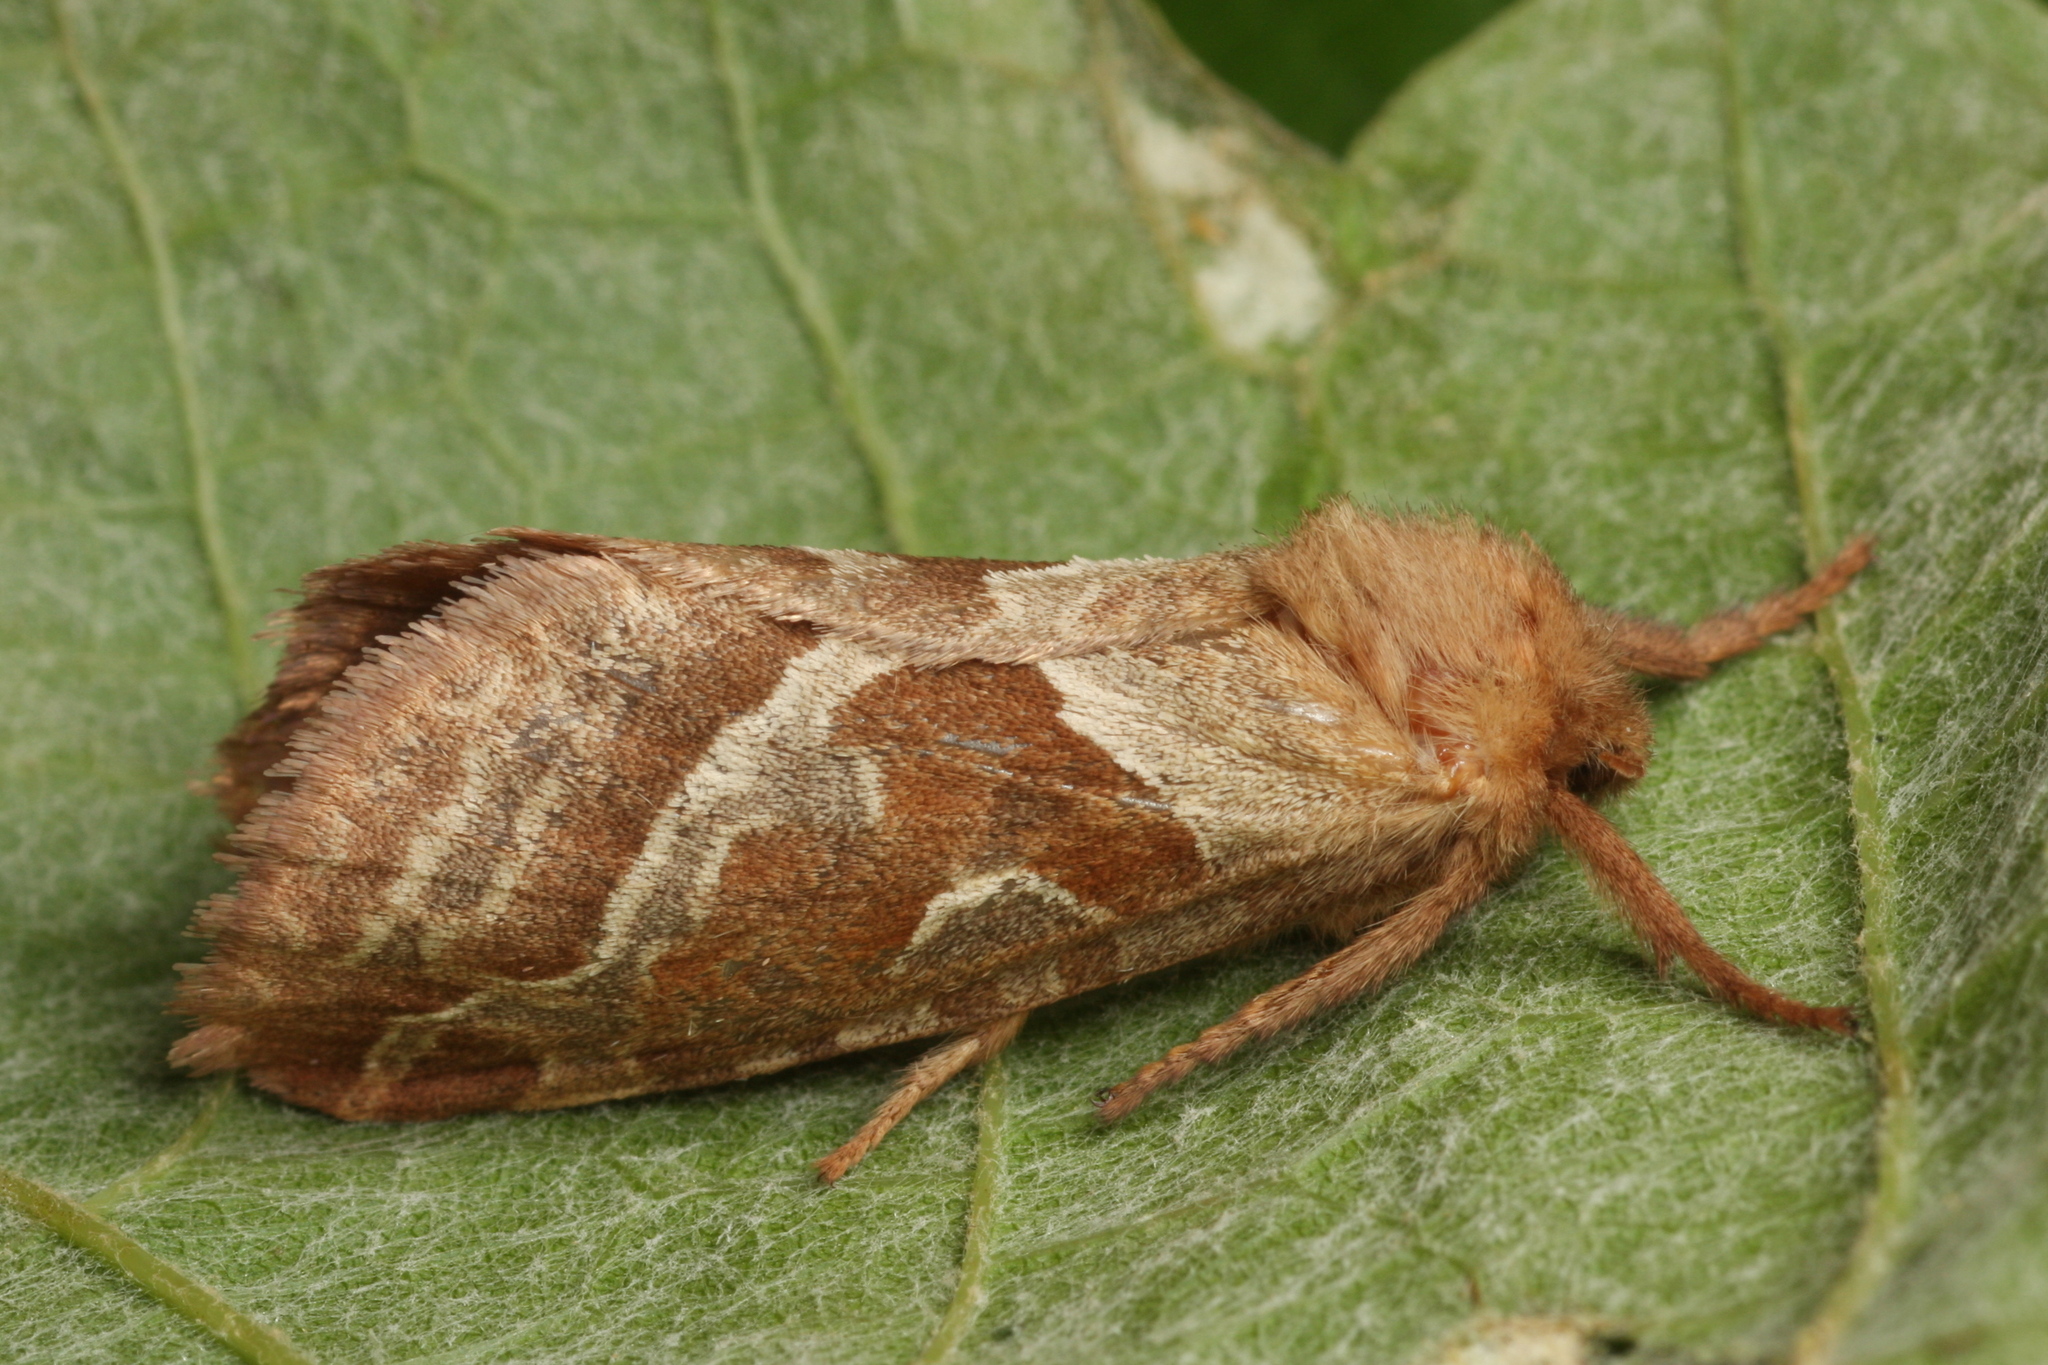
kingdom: Animalia
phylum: Arthropoda
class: Insecta
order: Lepidoptera
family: Hepialidae
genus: Triodia
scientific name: Triodia sylvina
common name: Orange swift
